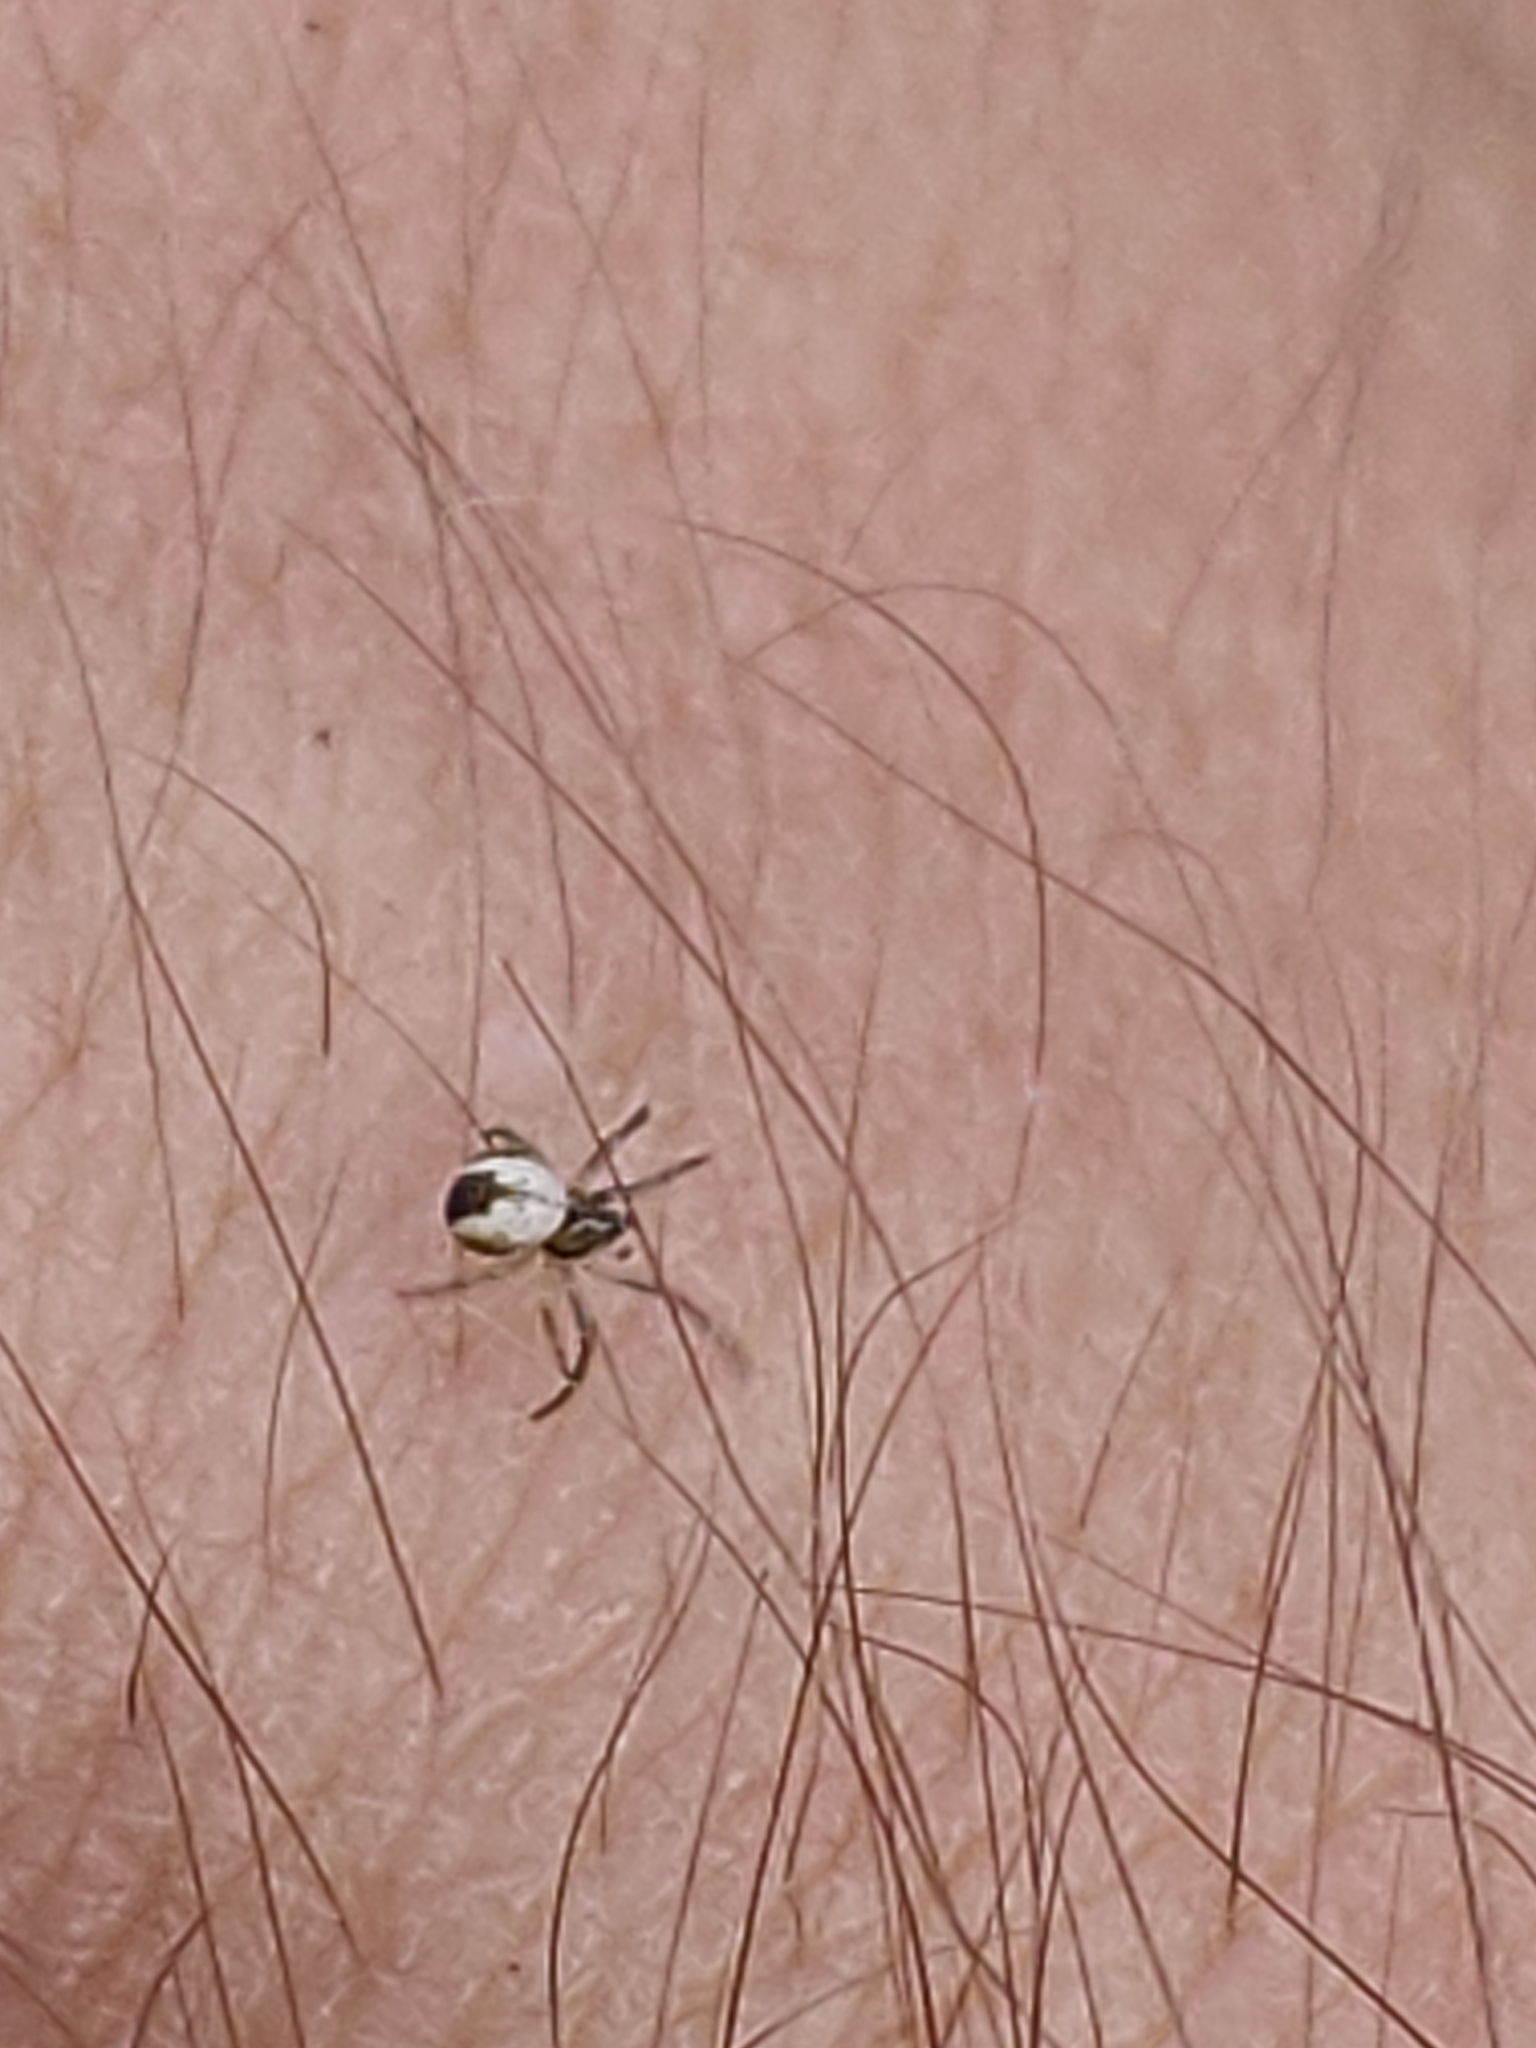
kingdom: Animalia
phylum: Arthropoda
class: Arachnida
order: Araneae
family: Araneidae
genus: Mangora
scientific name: Mangora acalypha
